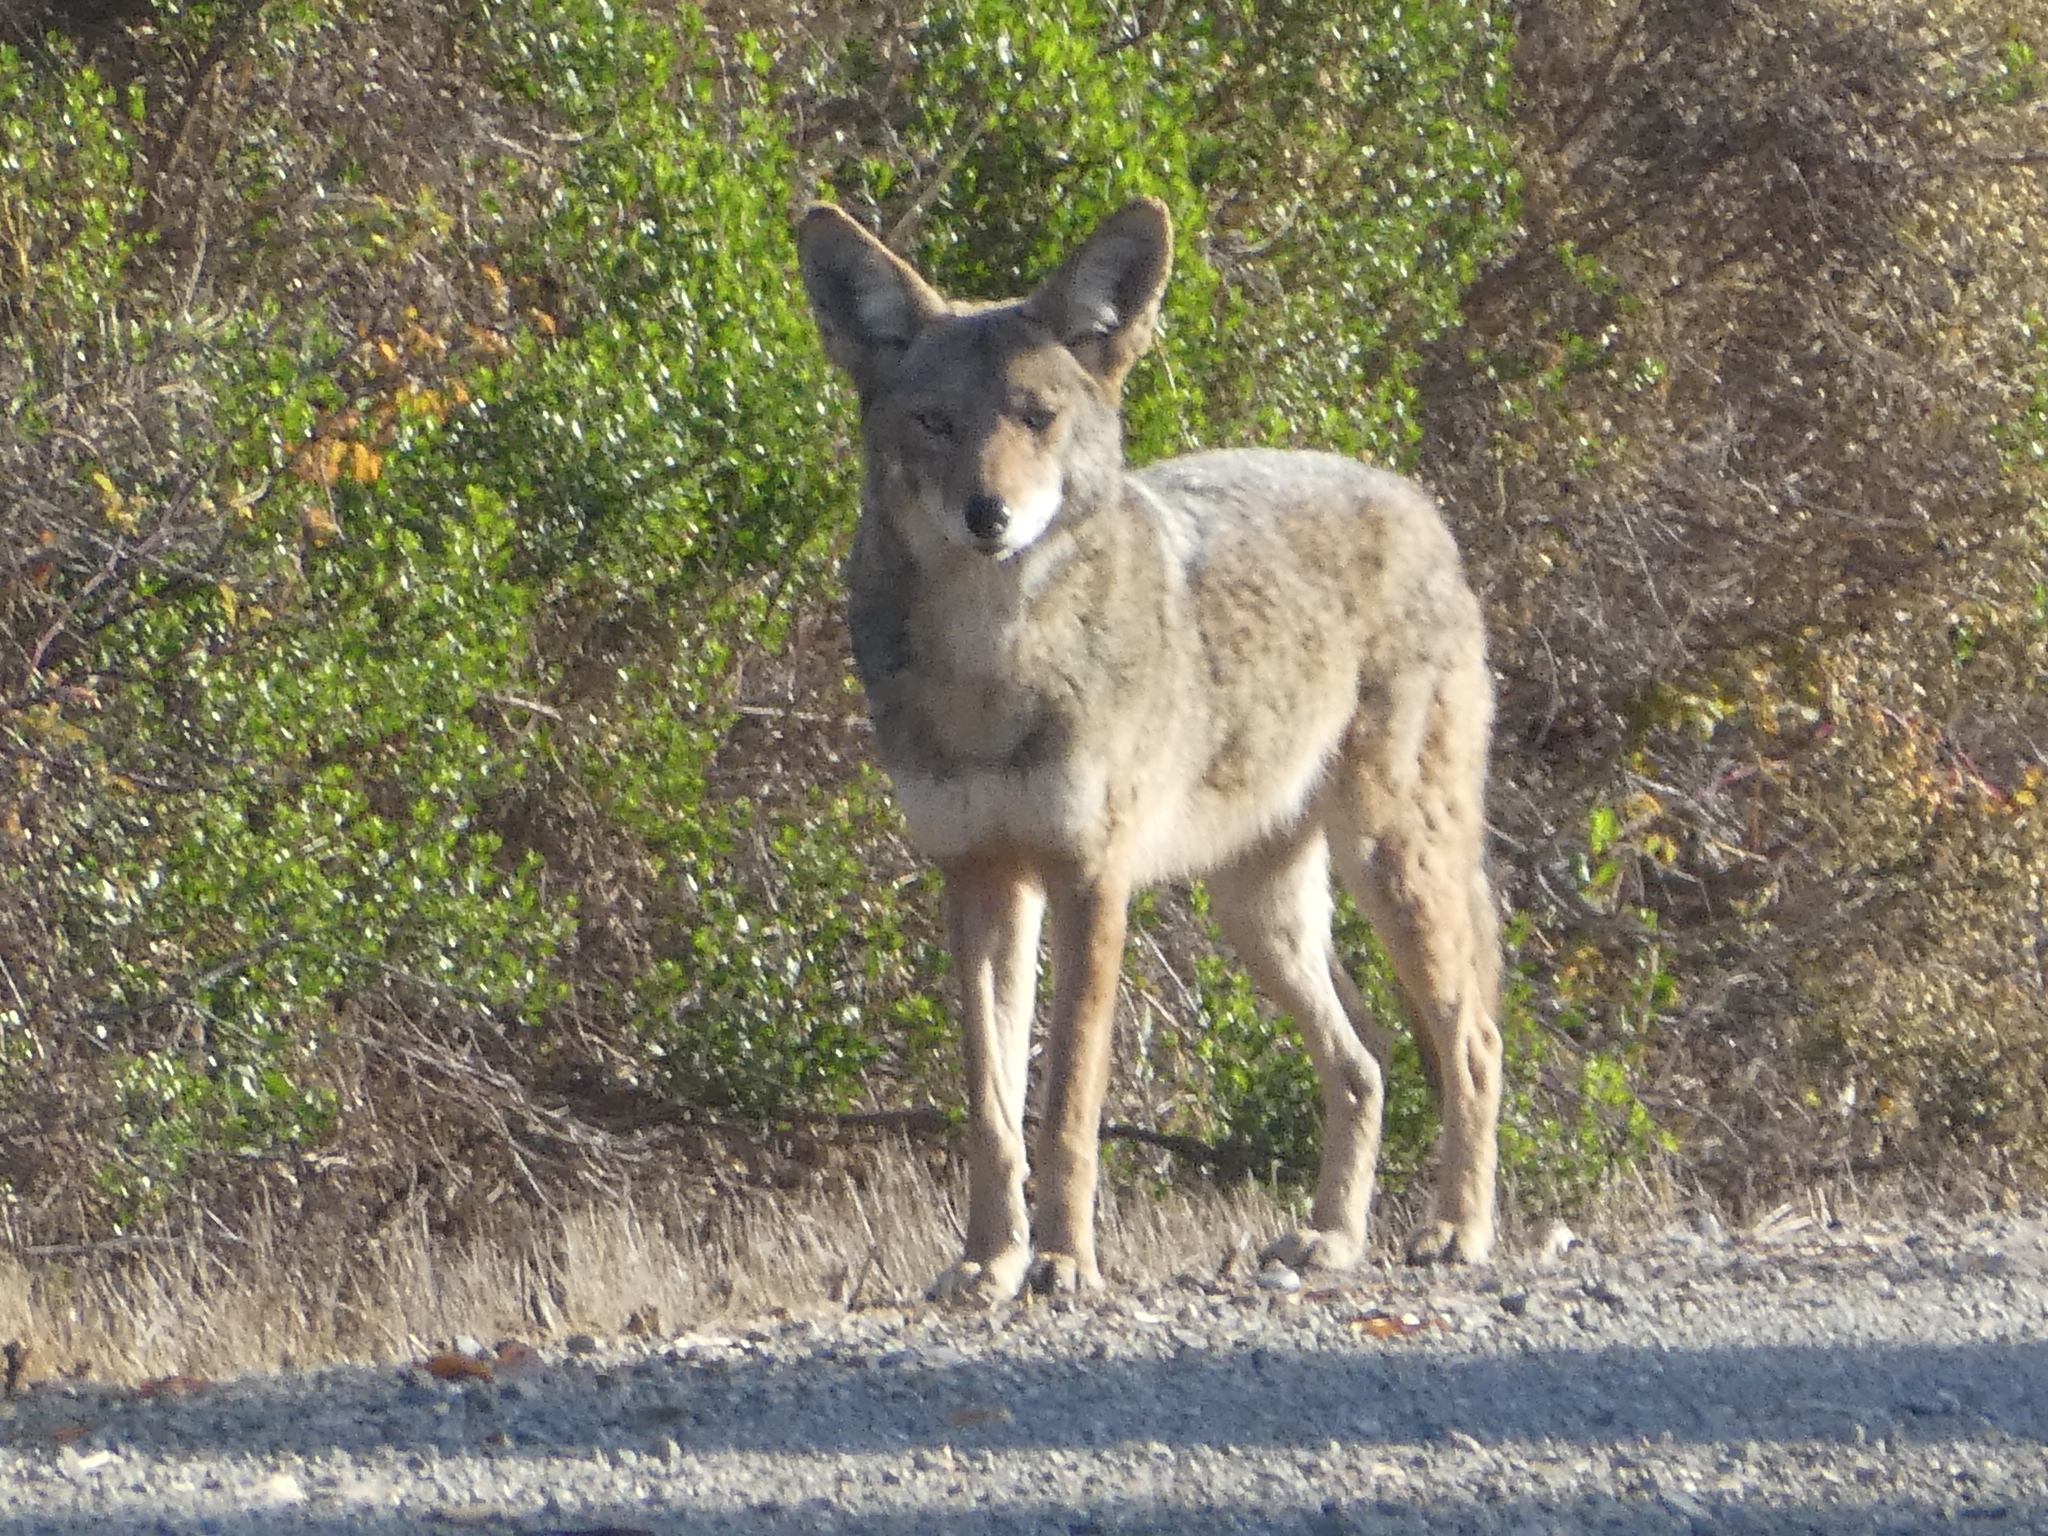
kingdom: Animalia
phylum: Chordata
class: Mammalia
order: Carnivora
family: Canidae
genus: Canis
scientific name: Canis latrans
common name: Coyote
